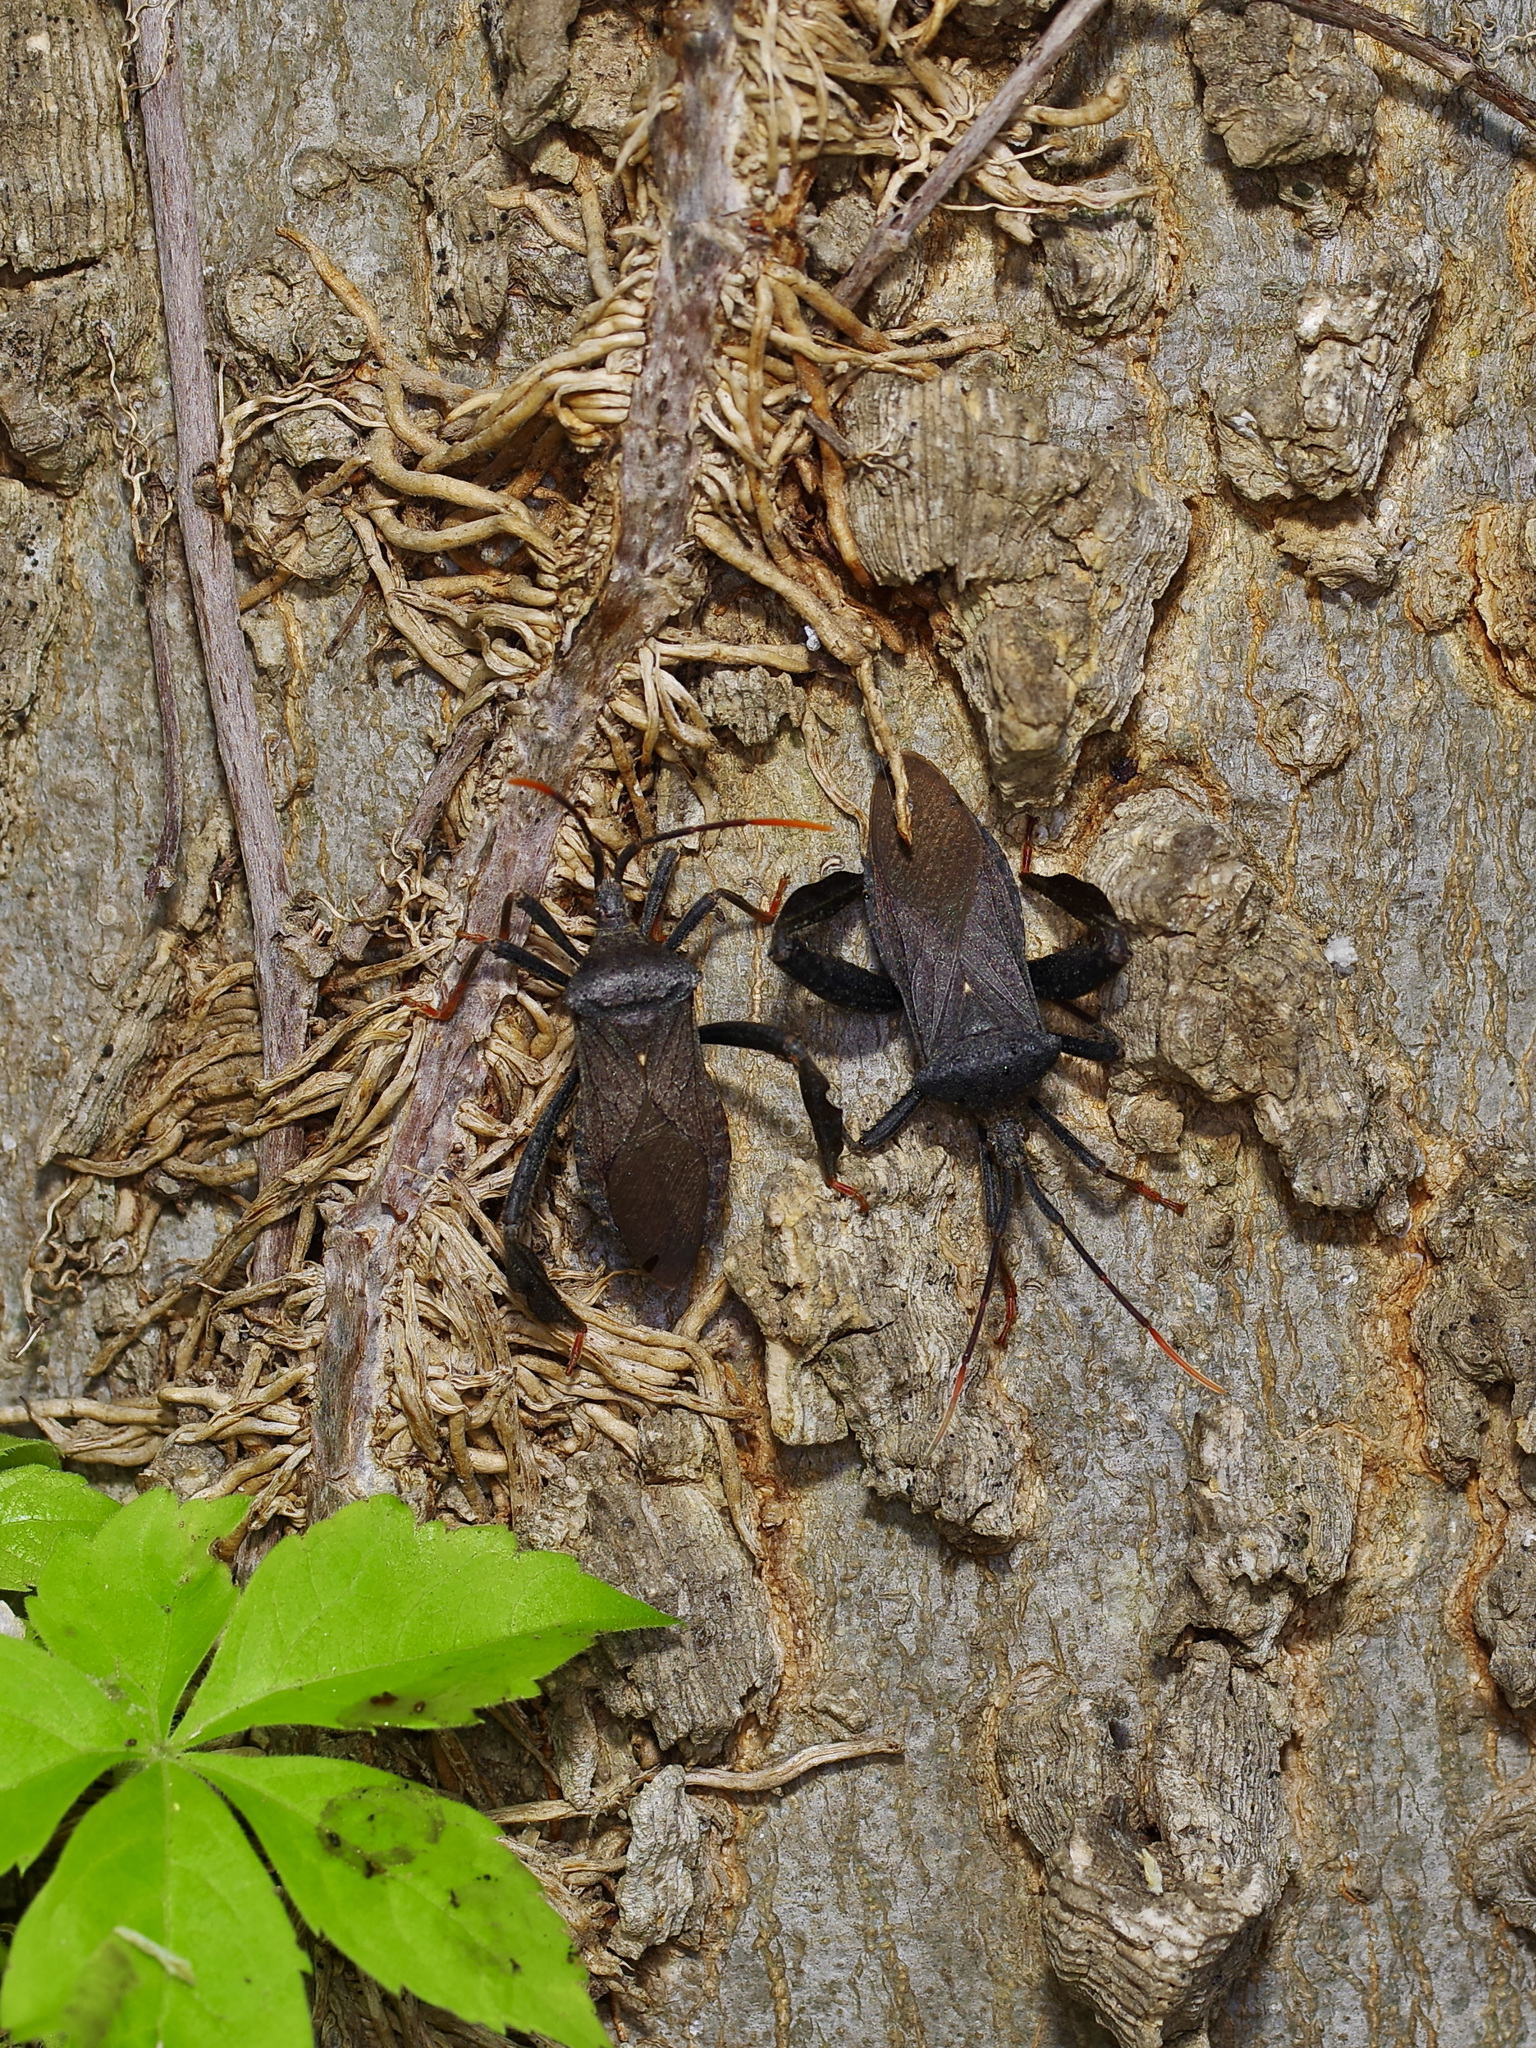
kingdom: Animalia
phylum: Arthropoda
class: Insecta
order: Hemiptera
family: Coreidae
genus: Acanthocephala
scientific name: Acanthocephala terminalis
